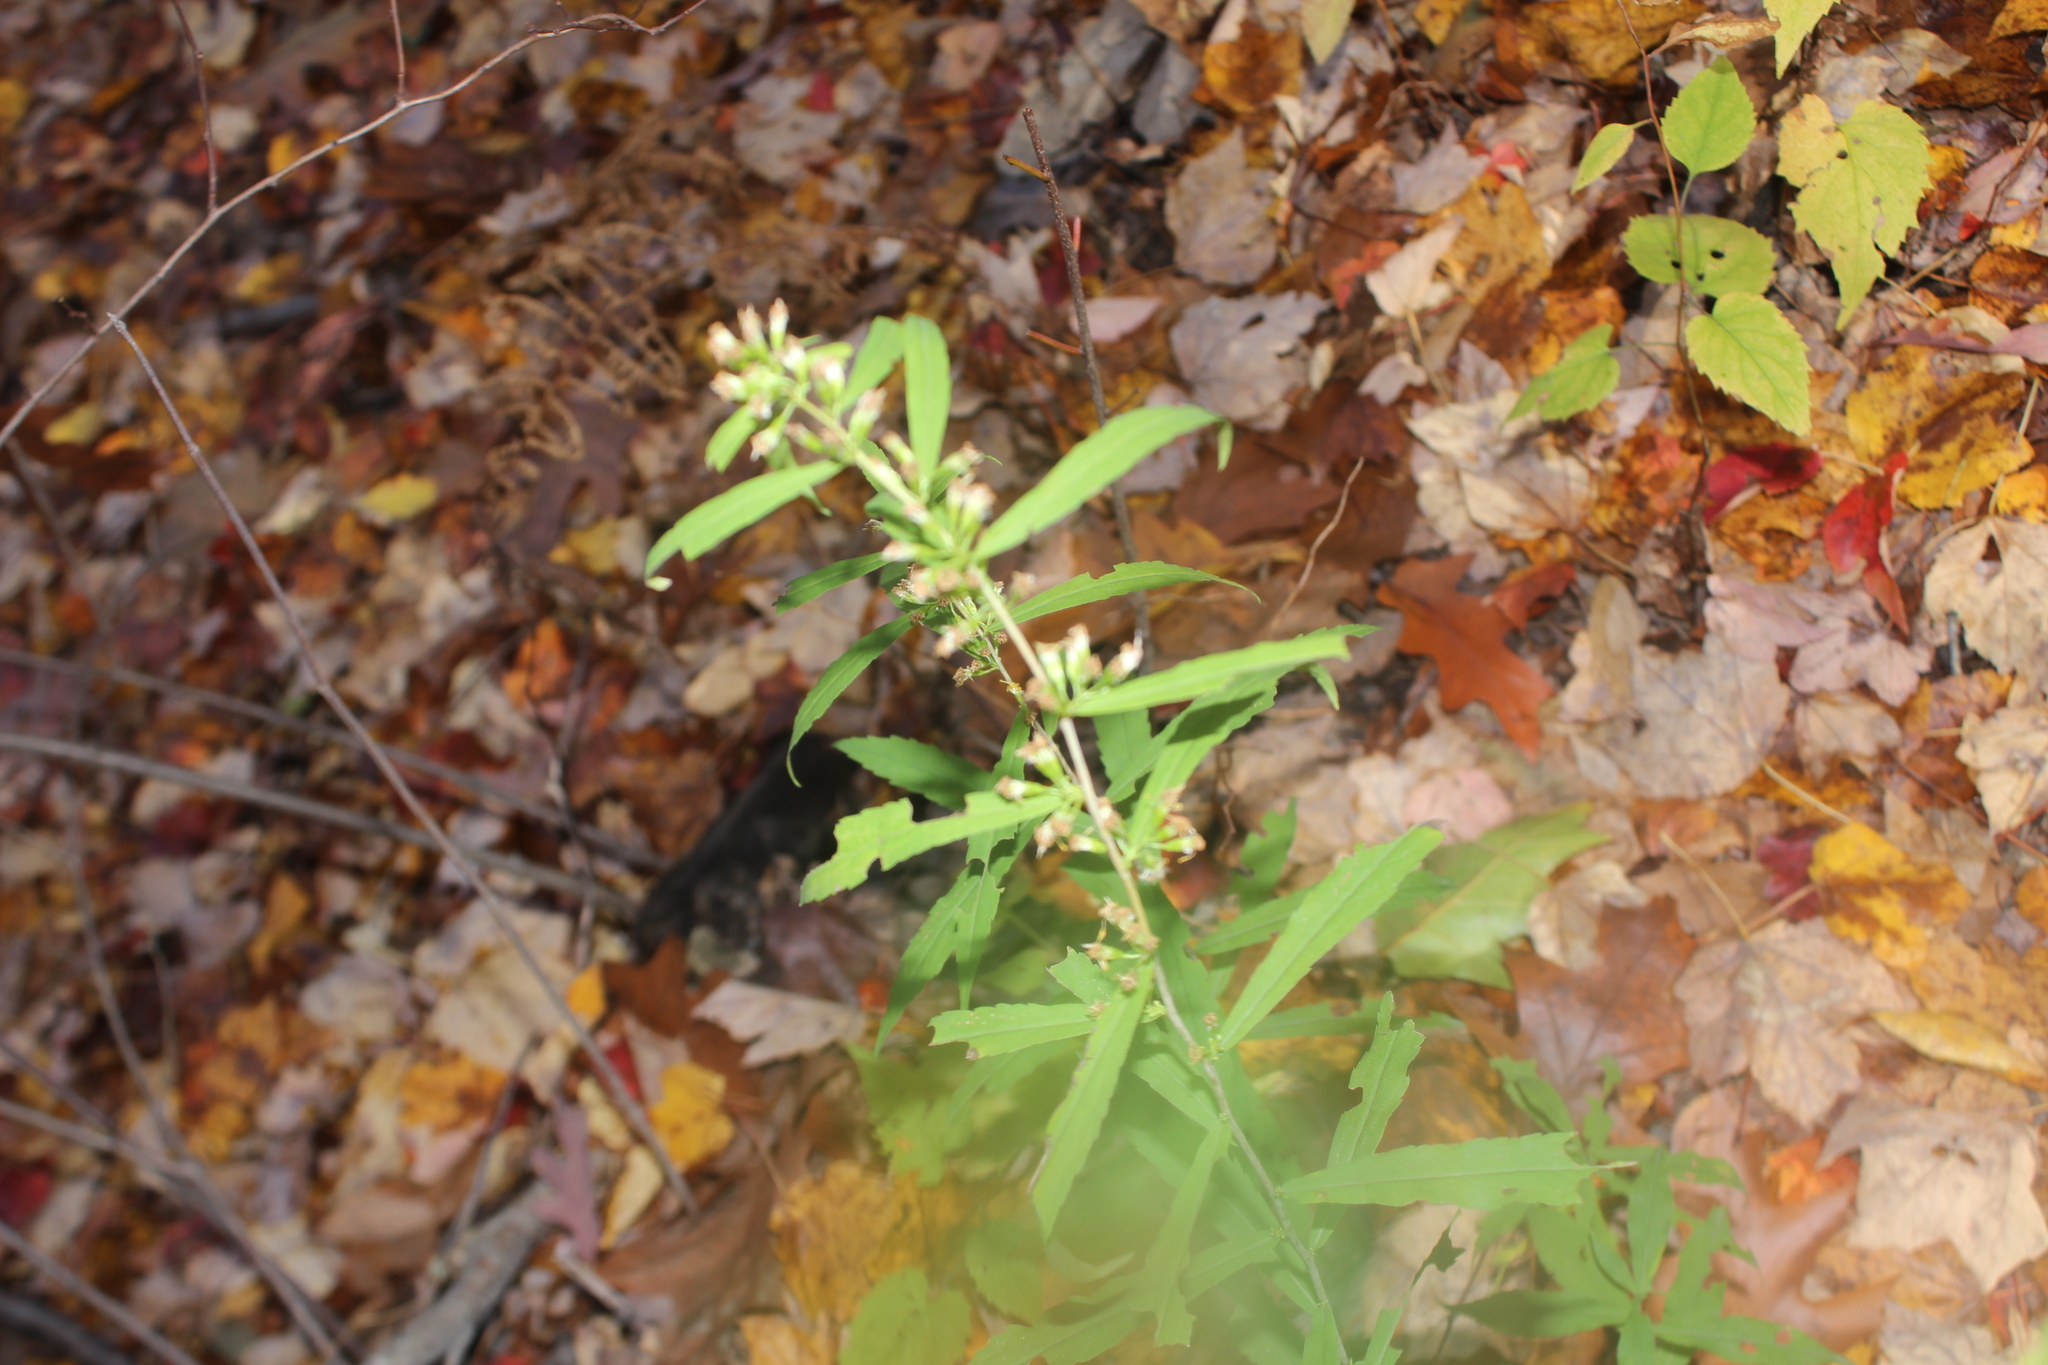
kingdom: Plantae
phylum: Tracheophyta
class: Magnoliopsida
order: Asterales
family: Asteraceae
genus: Solidago
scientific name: Solidago caesia
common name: Woodland goldenrod
